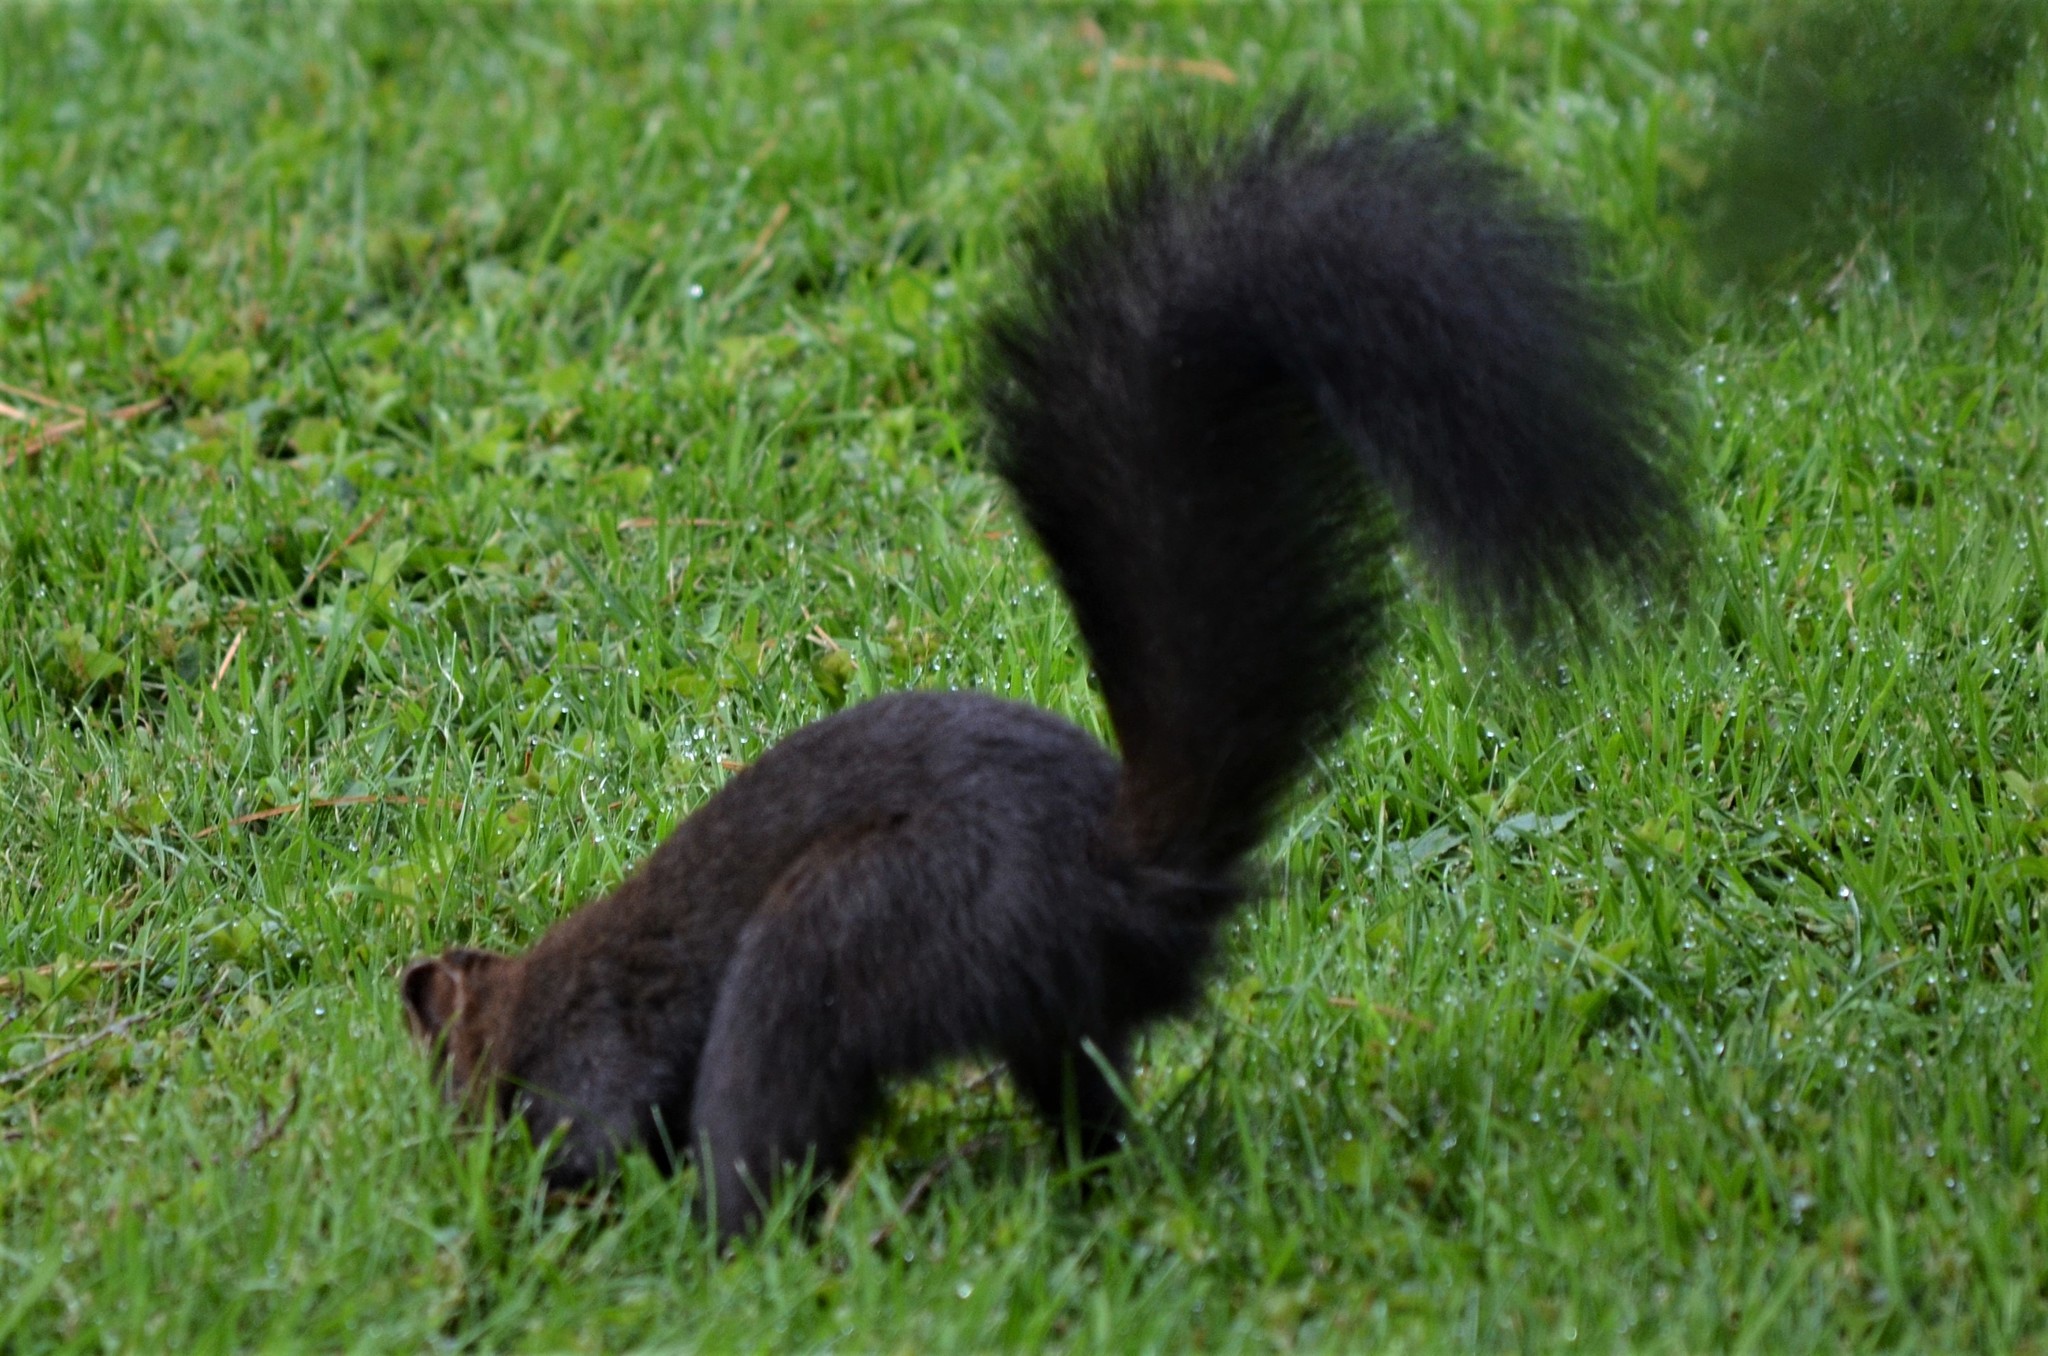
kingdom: Animalia
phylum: Chordata
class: Mammalia
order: Rodentia
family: Sciuridae
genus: Sciurus
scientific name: Sciurus vulgaris
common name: Eurasian red squirrel
